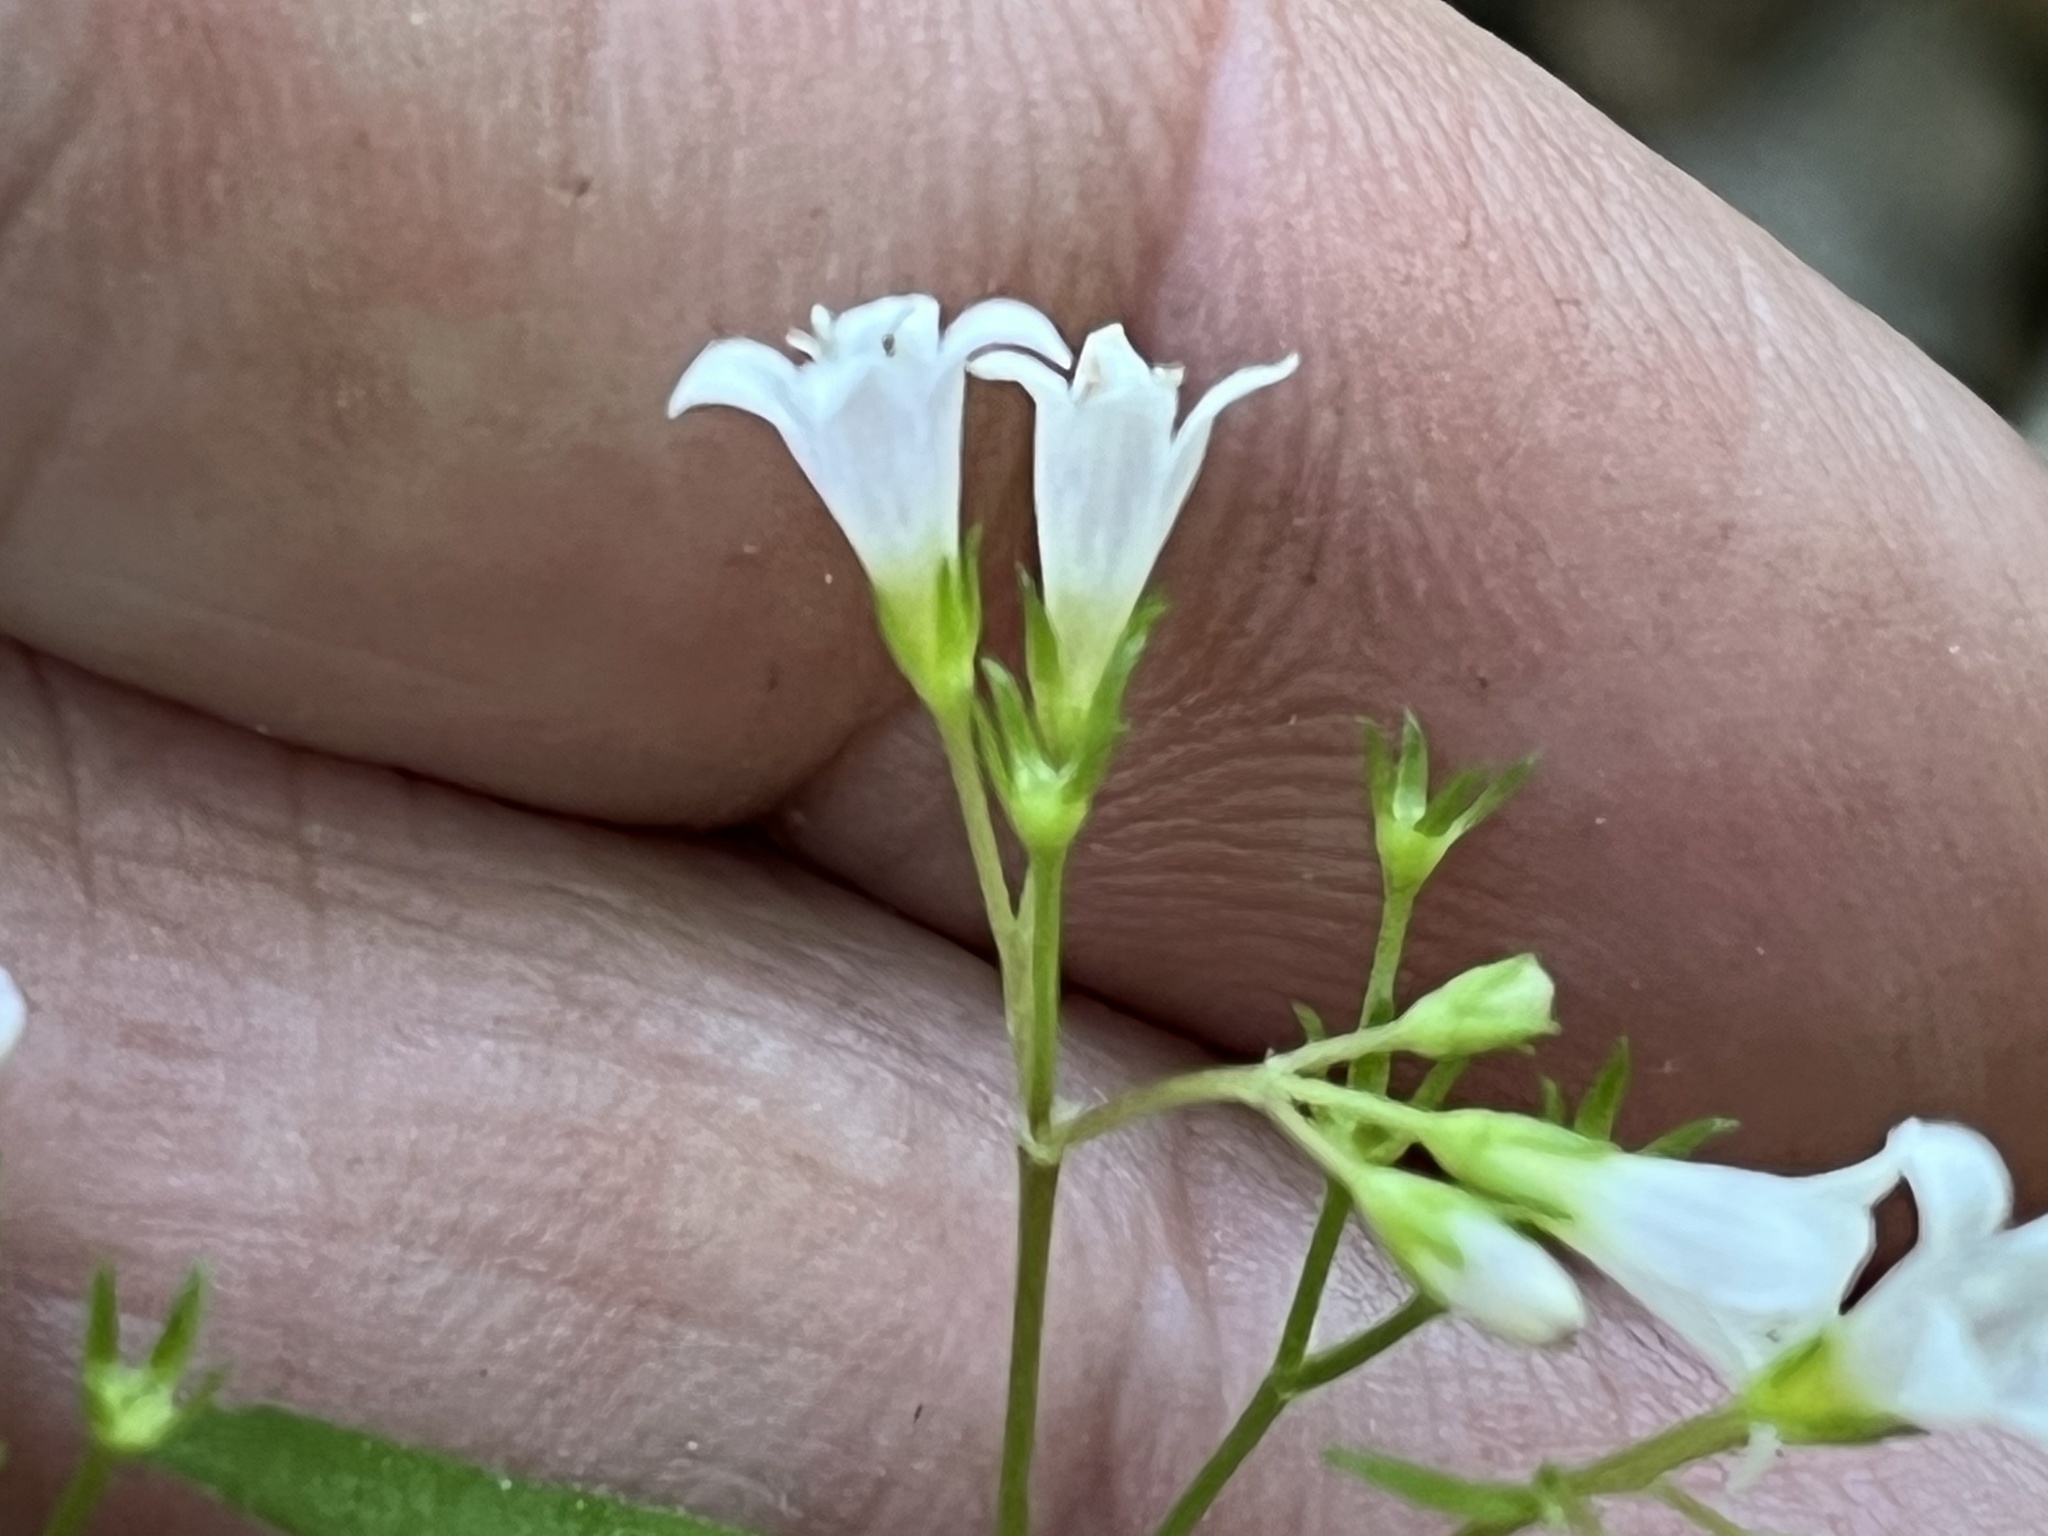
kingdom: Plantae
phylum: Tracheophyta
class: Magnoliopsida
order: Gentianales
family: Rubiaceae
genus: Houstonia
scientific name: Houstonia purpurea
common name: Summer bluet
